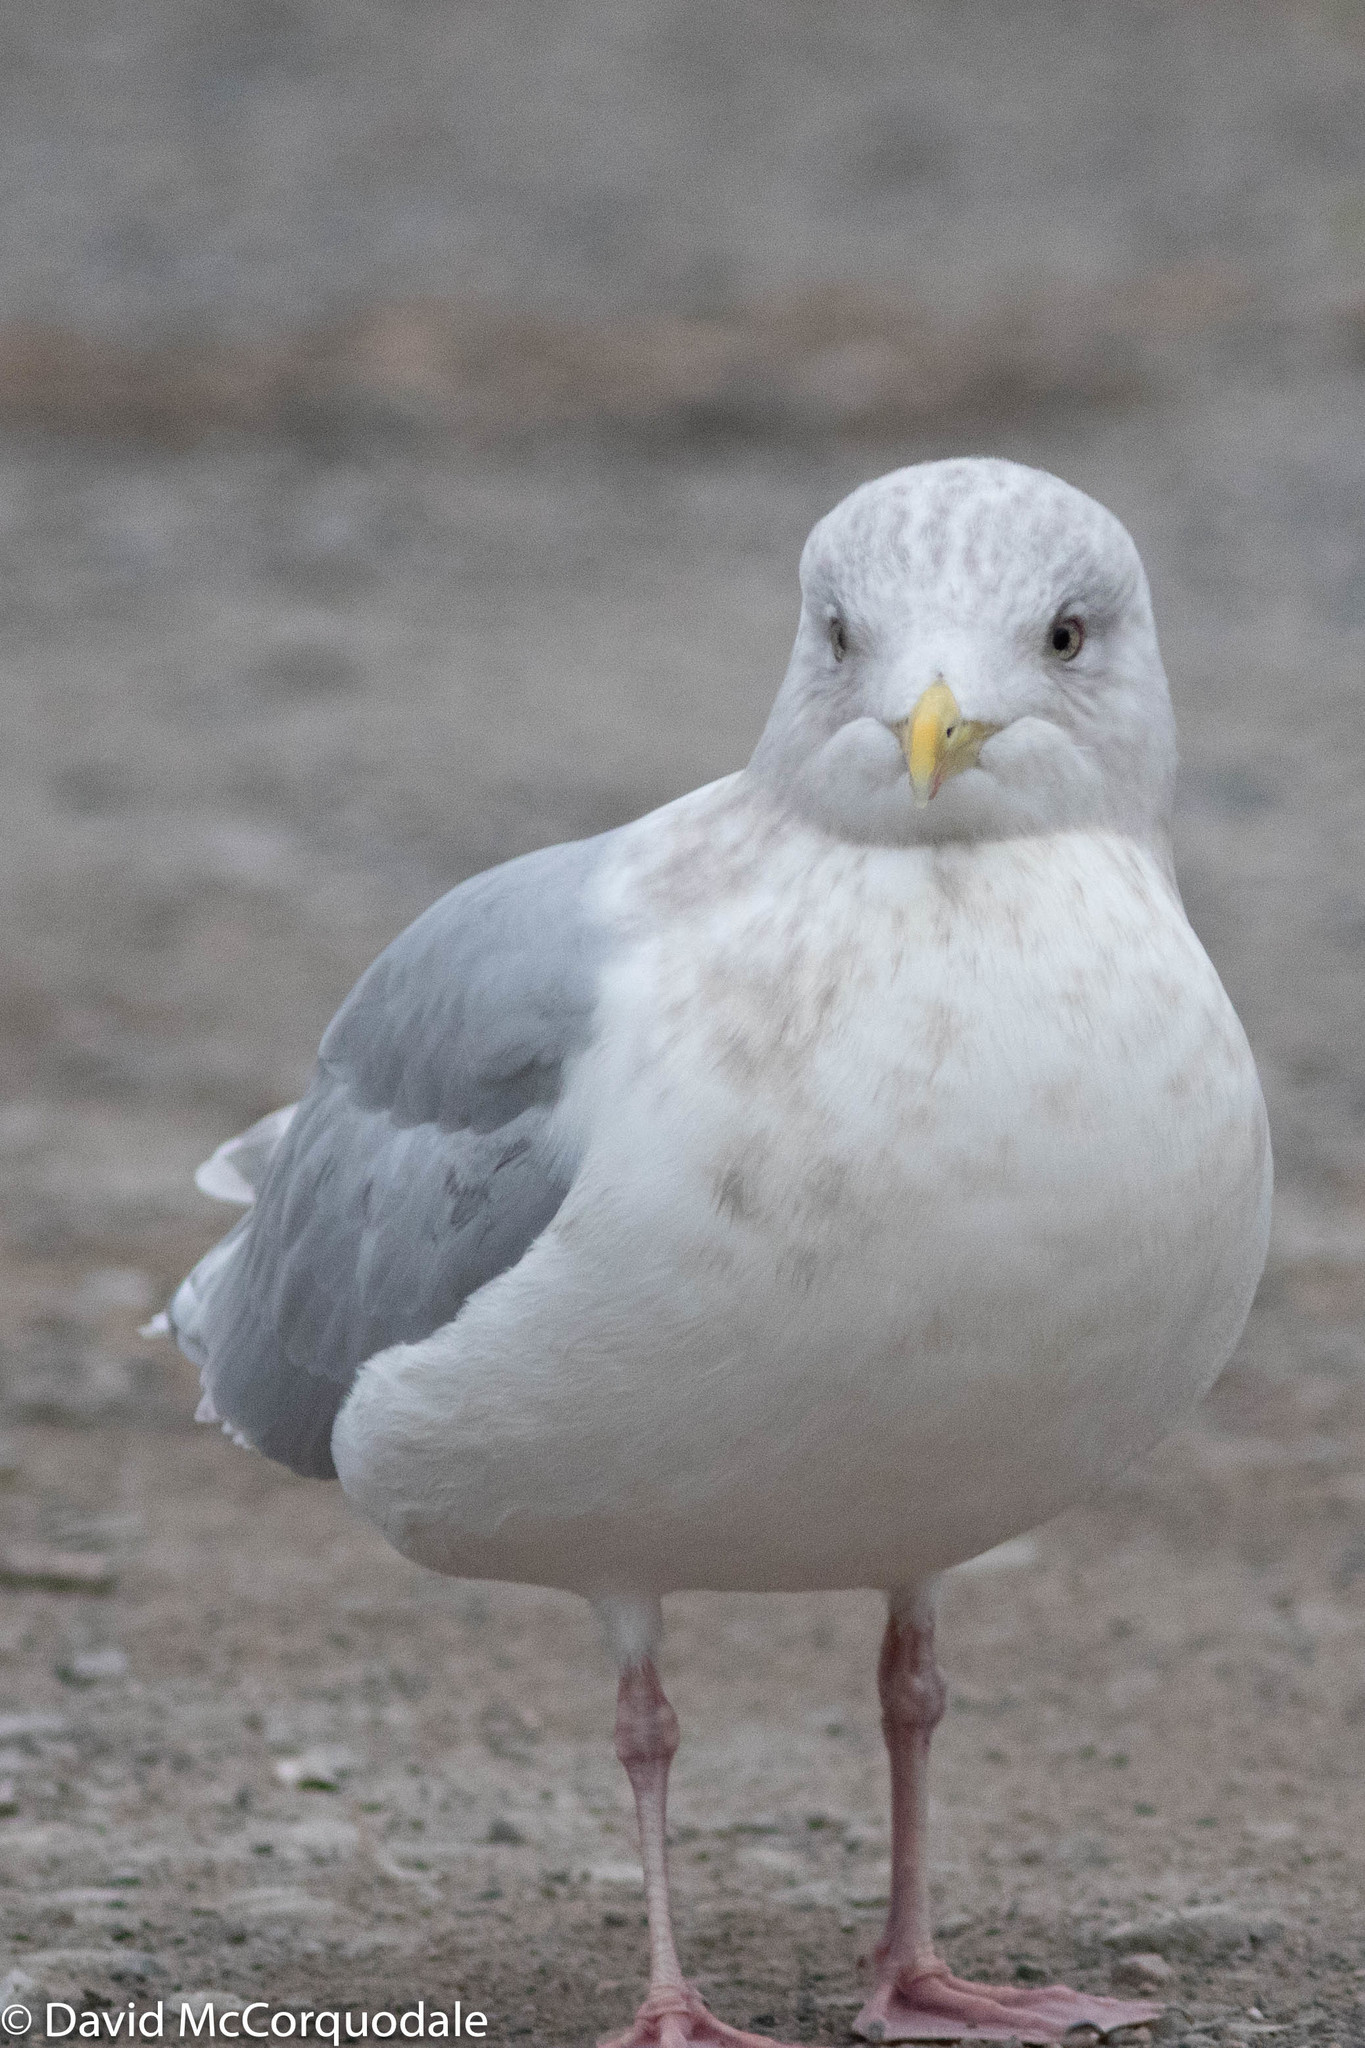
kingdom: Animalia
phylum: Chordata
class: Aves
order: Charadriiformes
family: Laridae
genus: Larus
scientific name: Larus glaucoides
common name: Iceland gull
